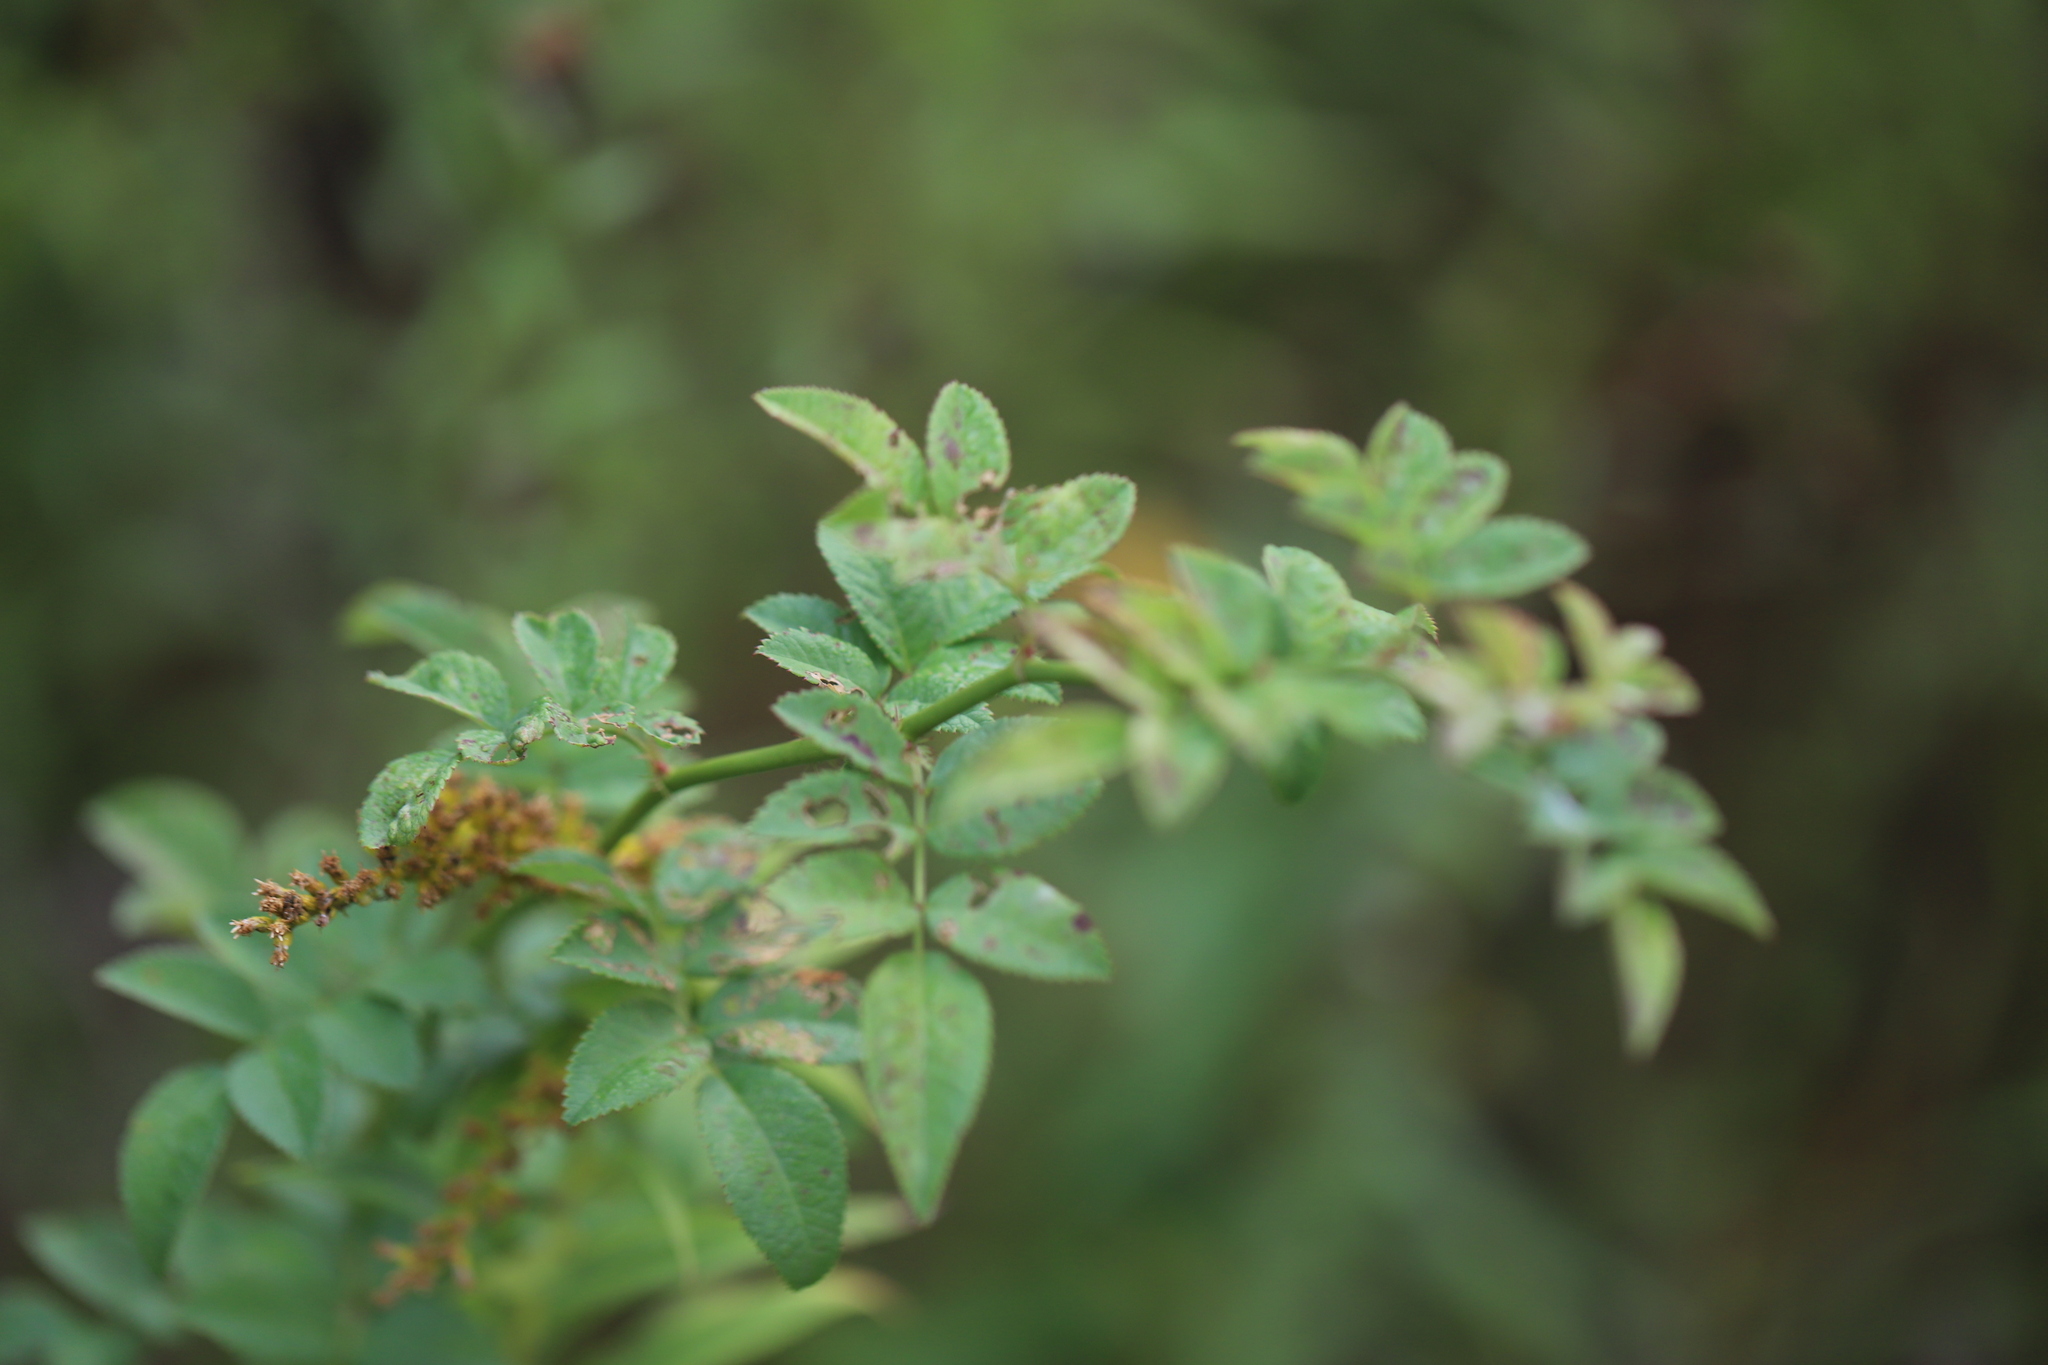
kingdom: Plantae
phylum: Tracheophyta
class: Magnoliopsida
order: Rosales
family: Rosaceae
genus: Rosa
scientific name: Rosa multiflora
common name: Multiflora rose
